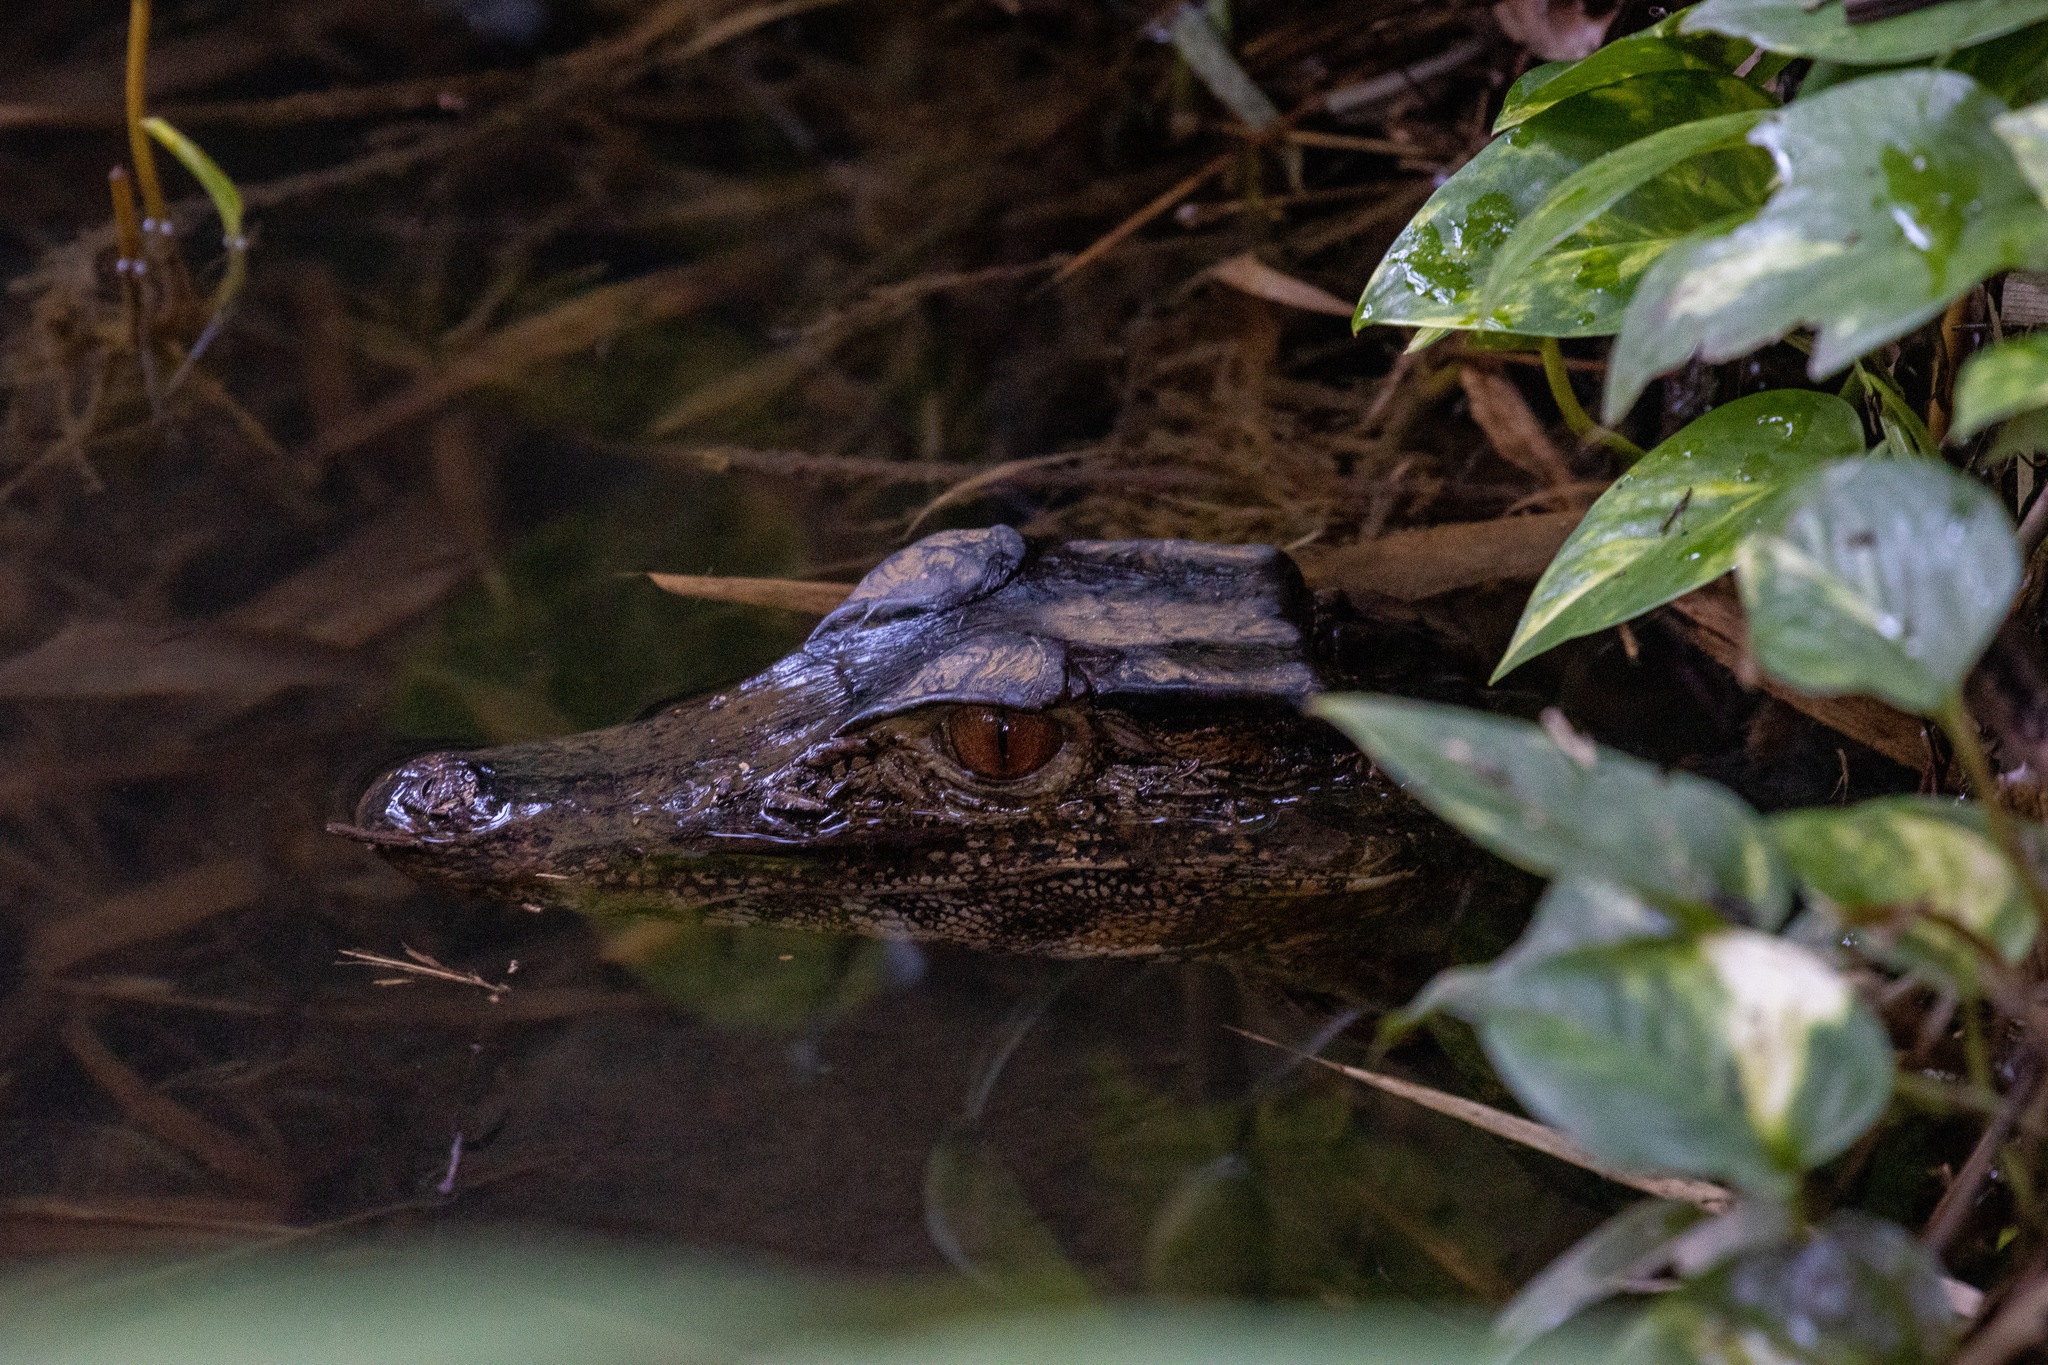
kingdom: Animalia
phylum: Chordata
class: Crocodylia
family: Alligatoridae
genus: Paleosuchus
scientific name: Paleosuchus palpebrosus
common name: Cuvier's smooth-fronted caiman
